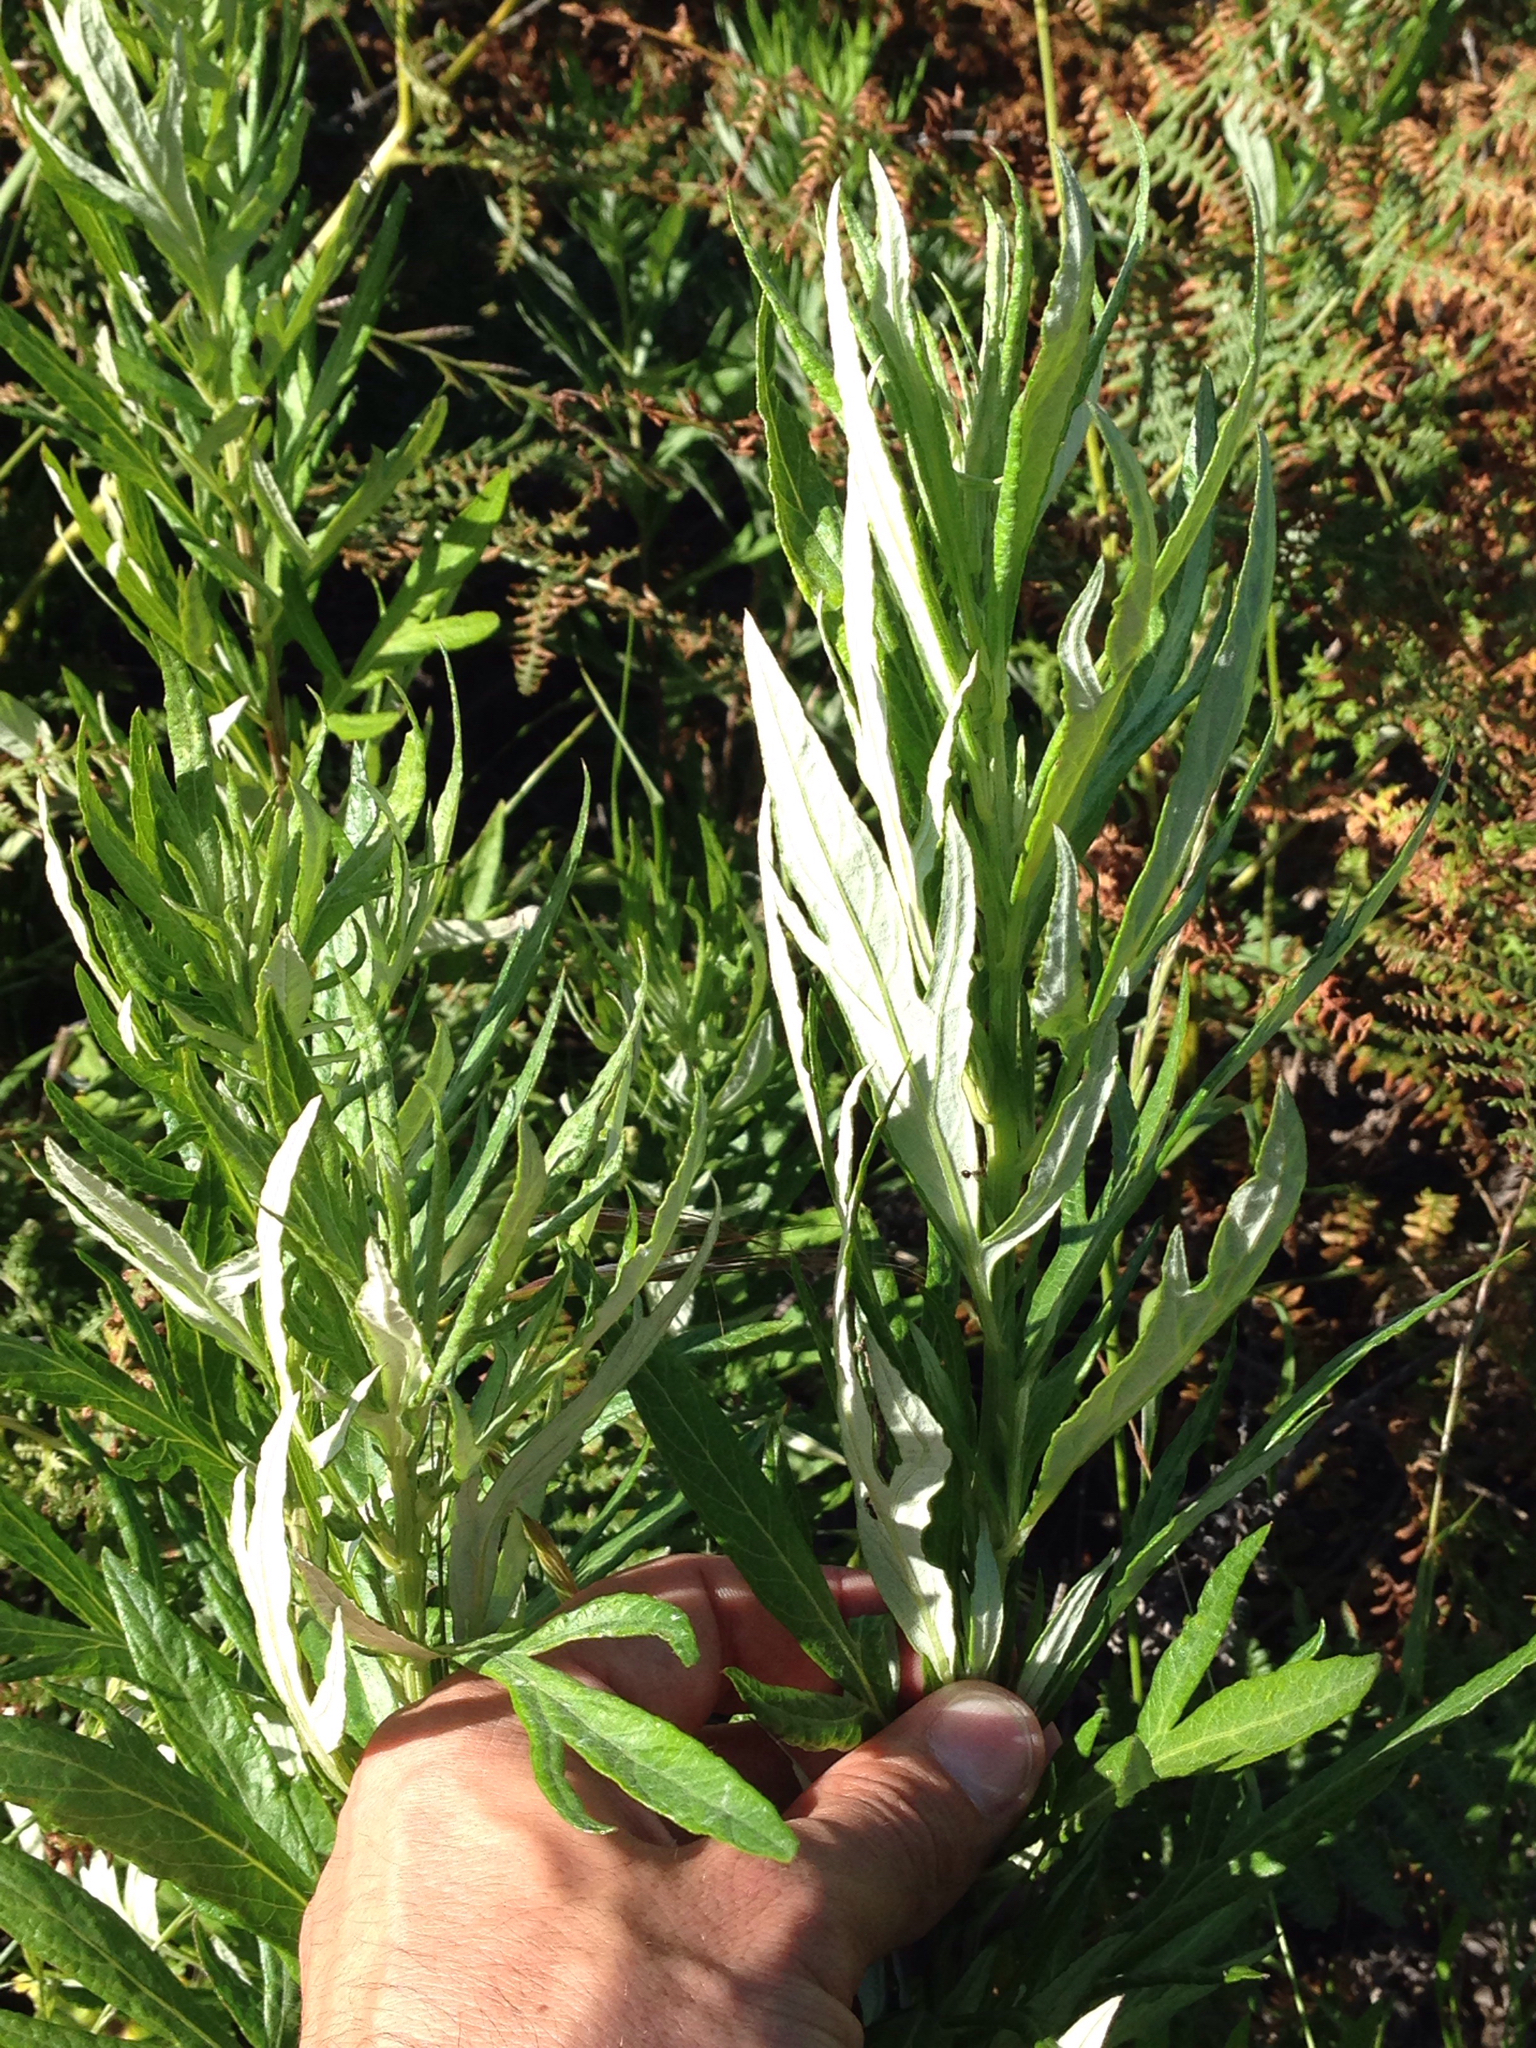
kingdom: Plantae
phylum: Tracheophyta
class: Magnoliopsida
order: Asterales
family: Asteraceae
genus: Artemisia
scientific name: Artemisia douglasiana
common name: Northwest mugwort
